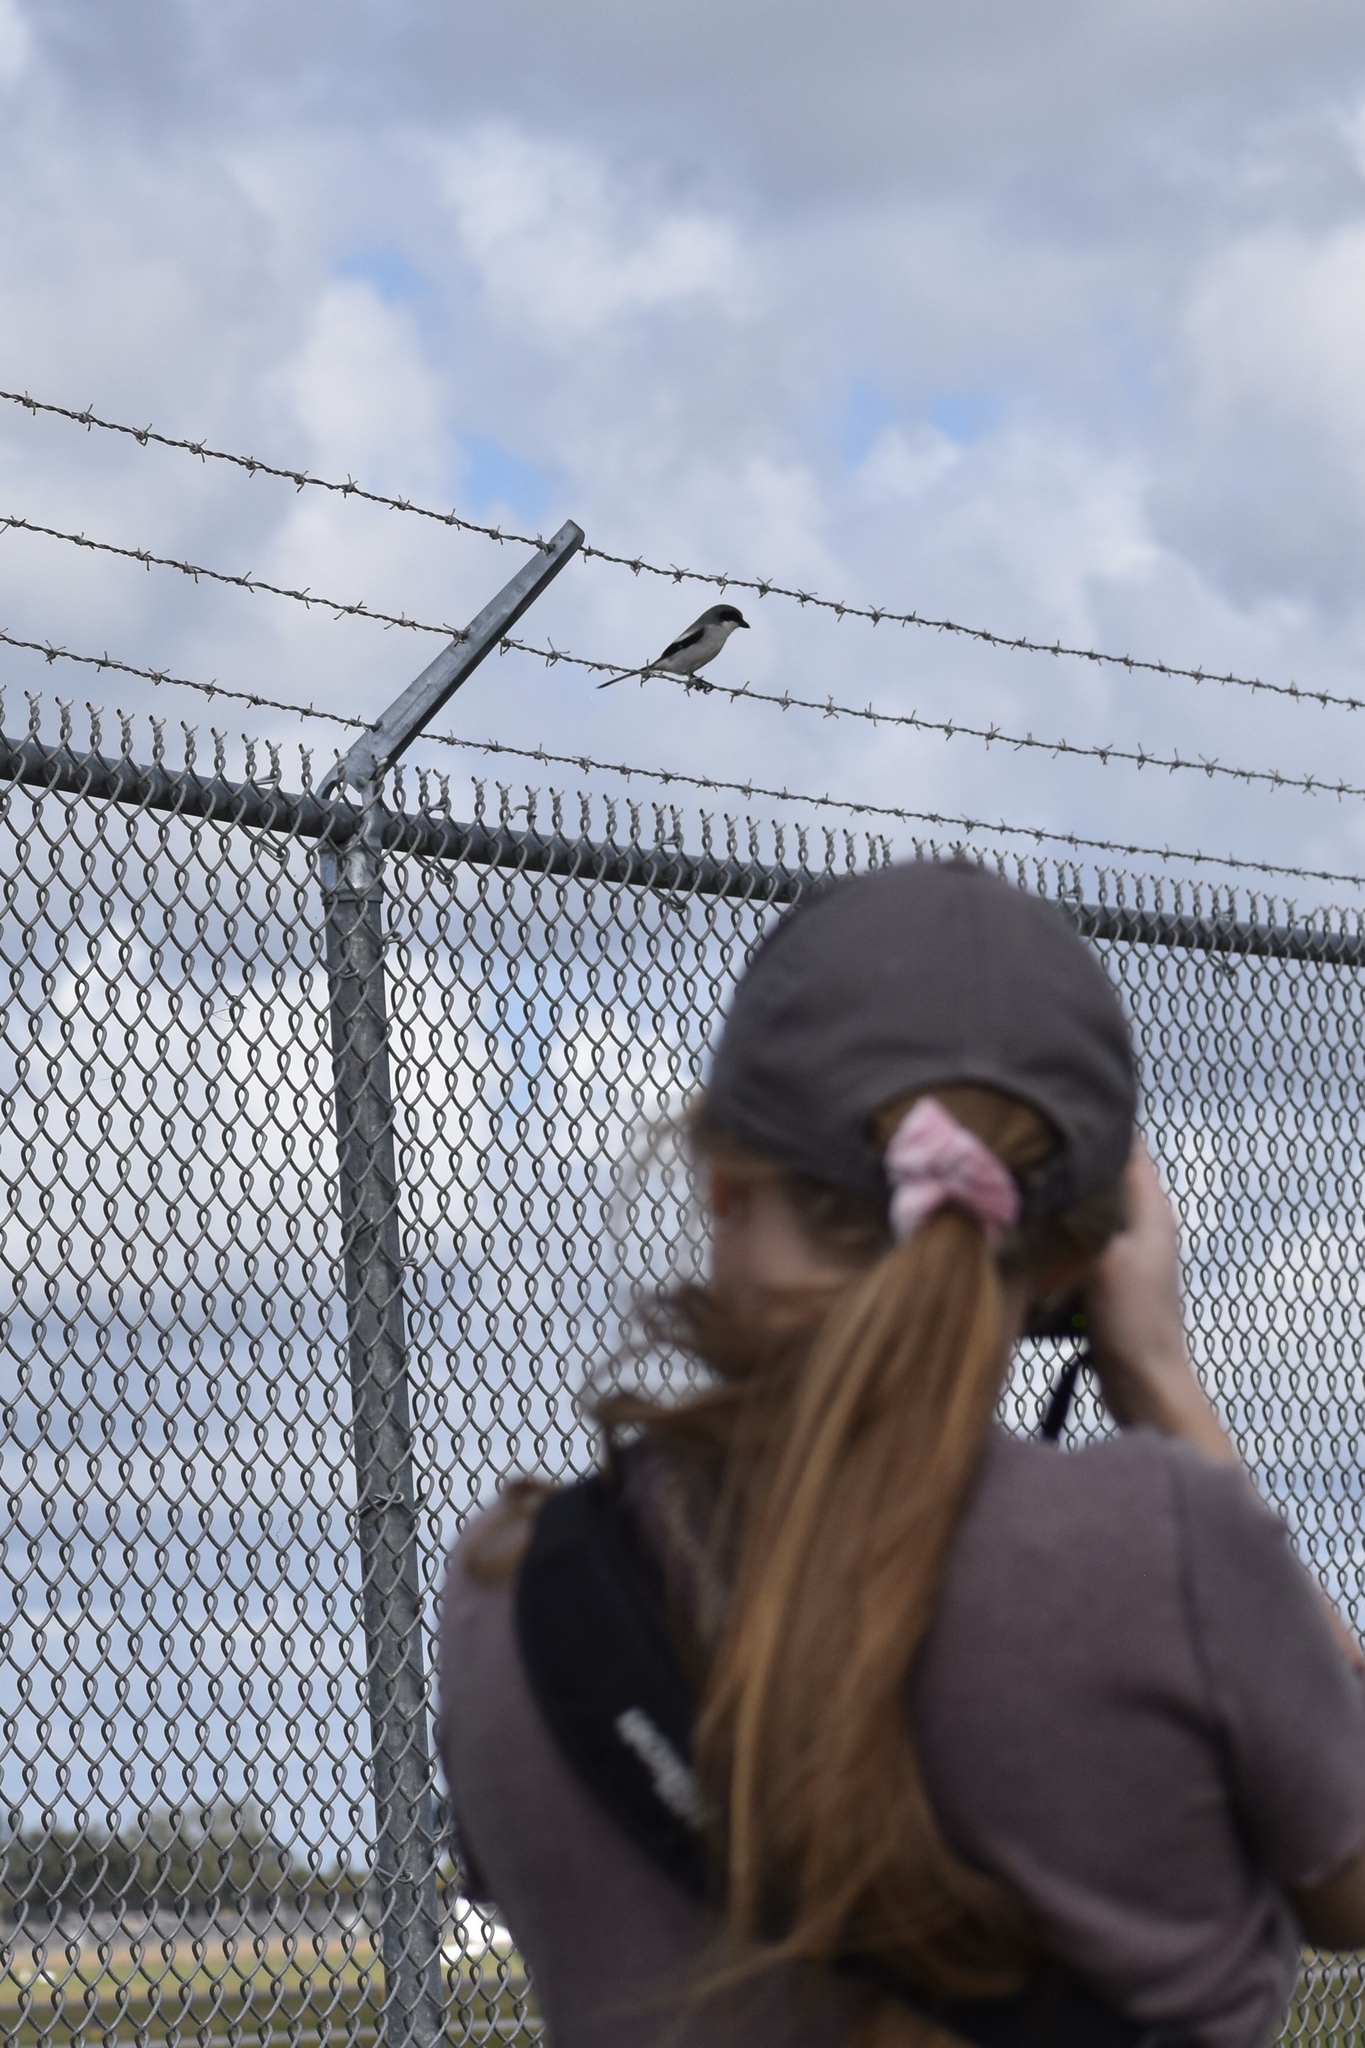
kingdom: Animalia
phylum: Chordata
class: Aves
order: Passeriformes
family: Laniidae
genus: Lanius
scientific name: Lanius ludovicianus
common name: Loggerhead shrike
